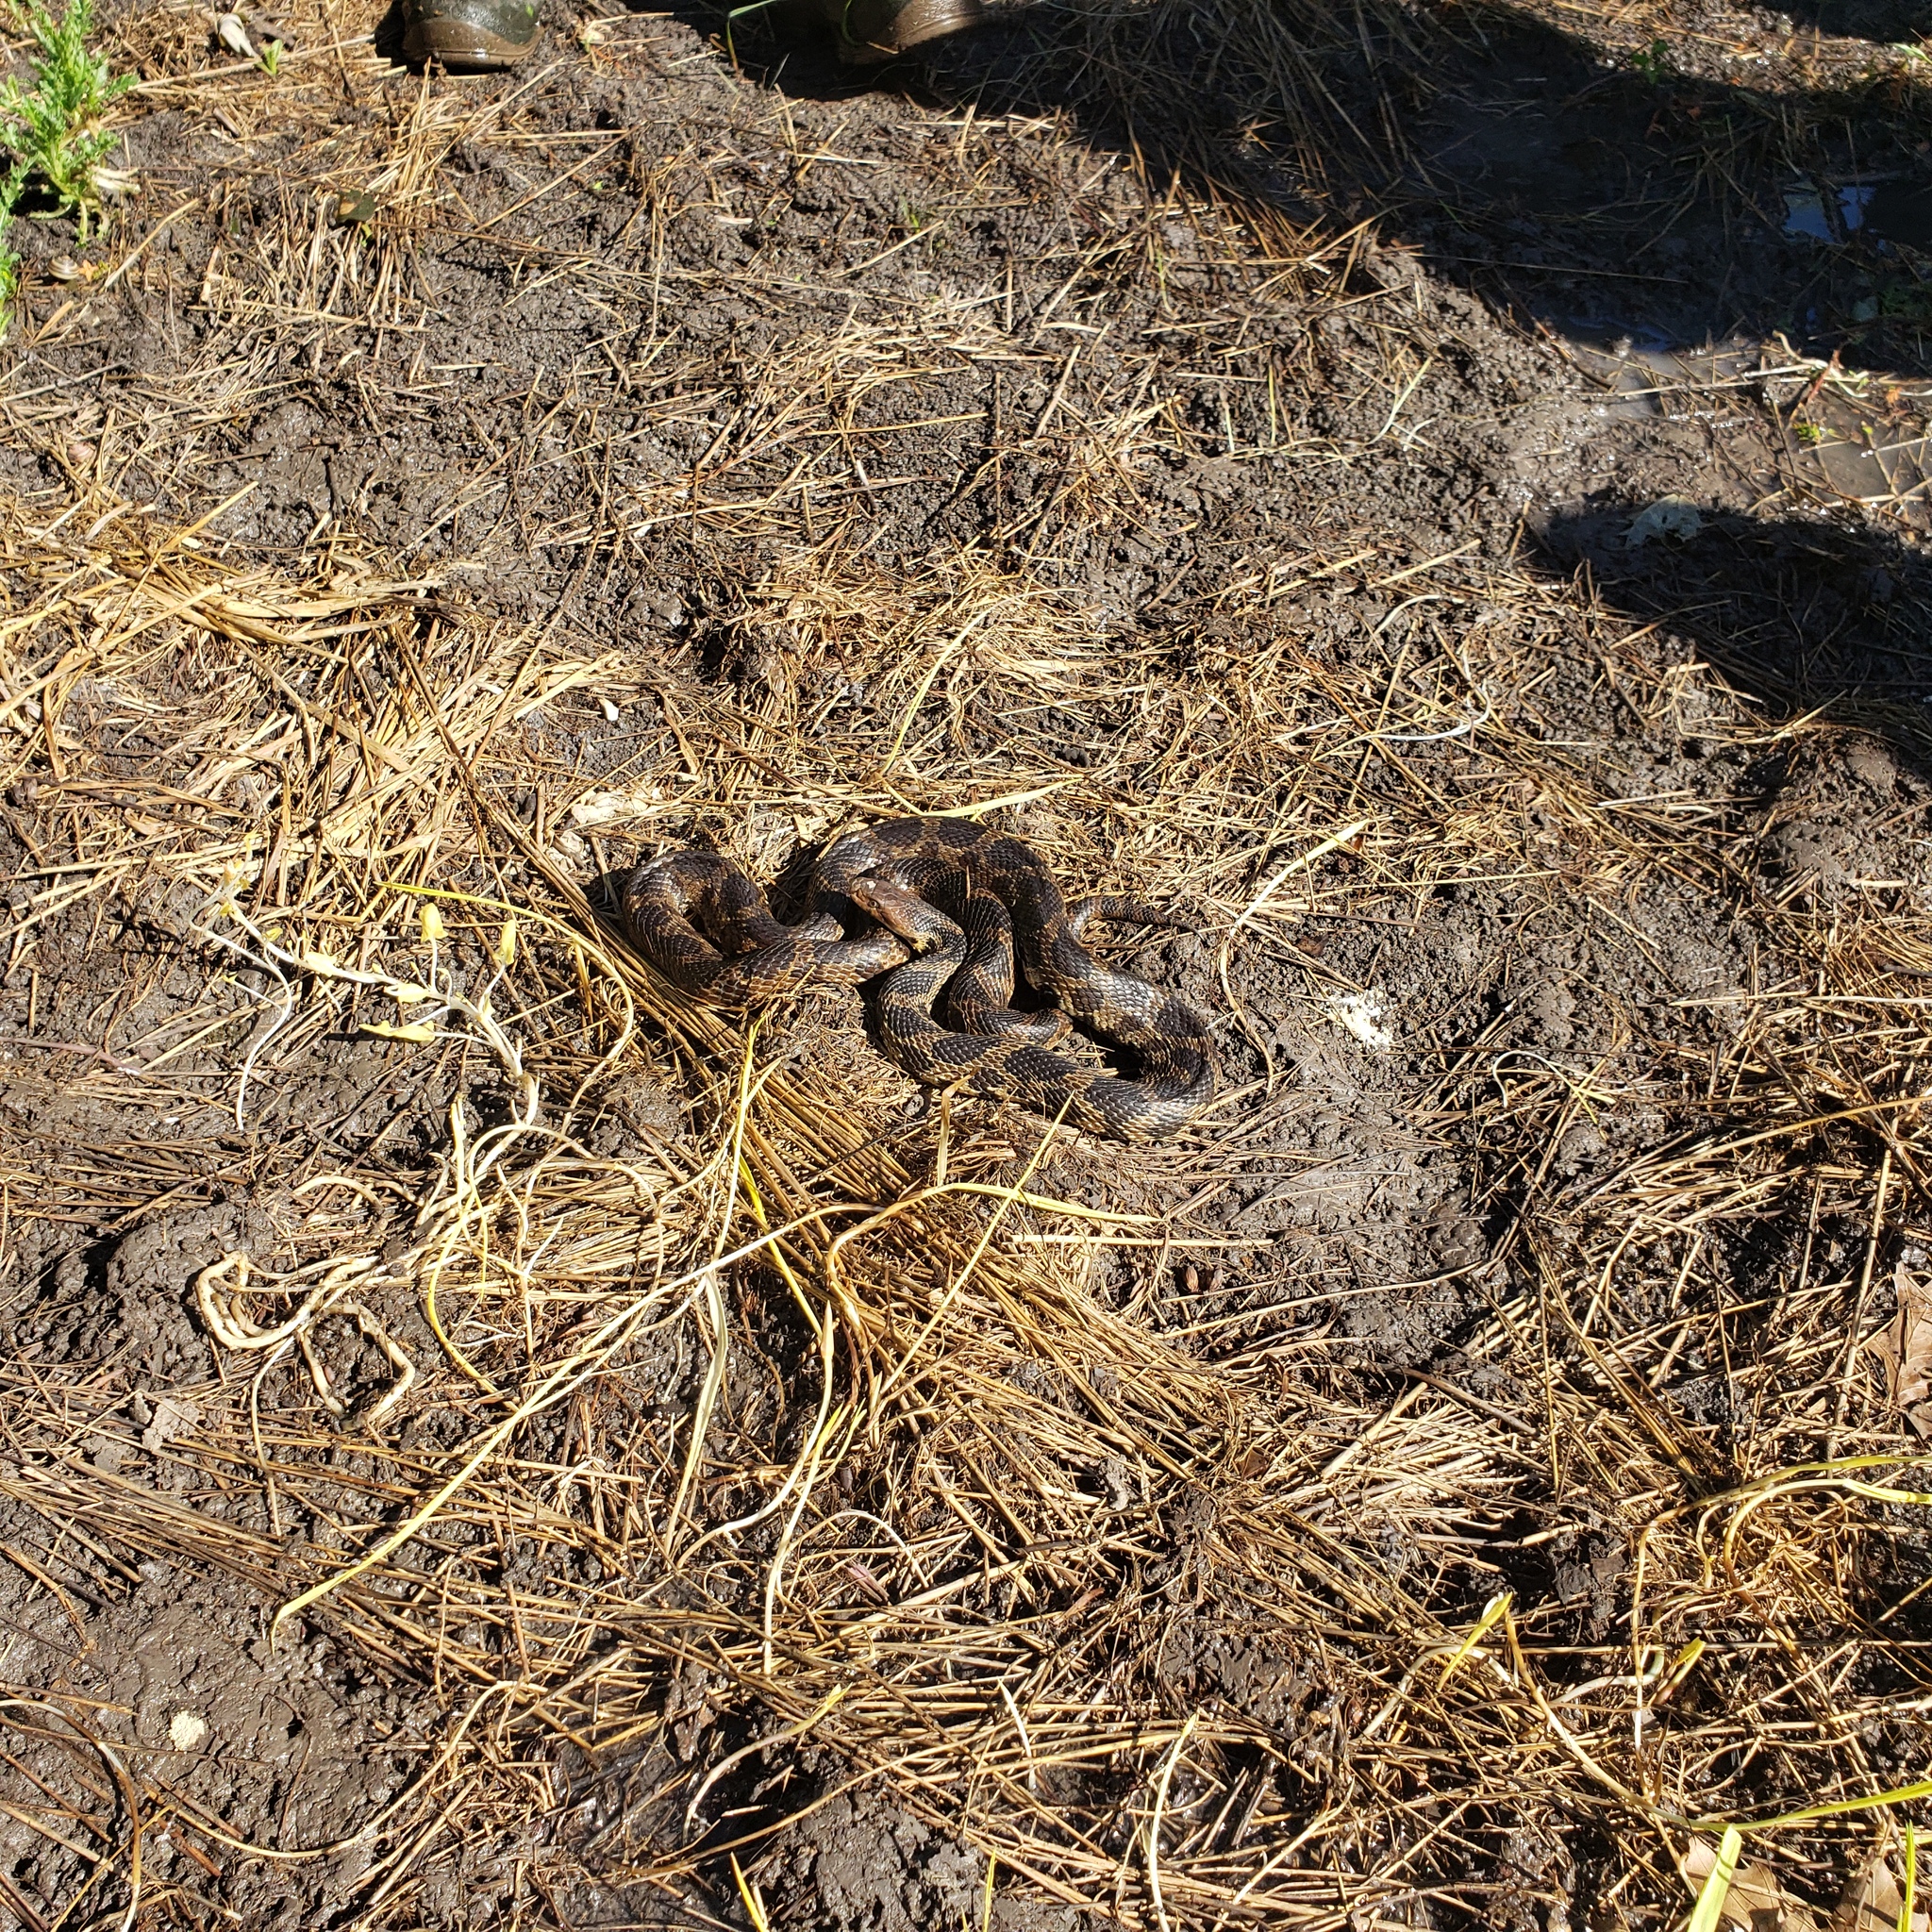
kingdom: Animalia
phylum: Chordata
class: Squamata
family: Colubridae
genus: Pantherophis
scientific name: Pantherophis vulpinus
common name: Eastern fox snake
